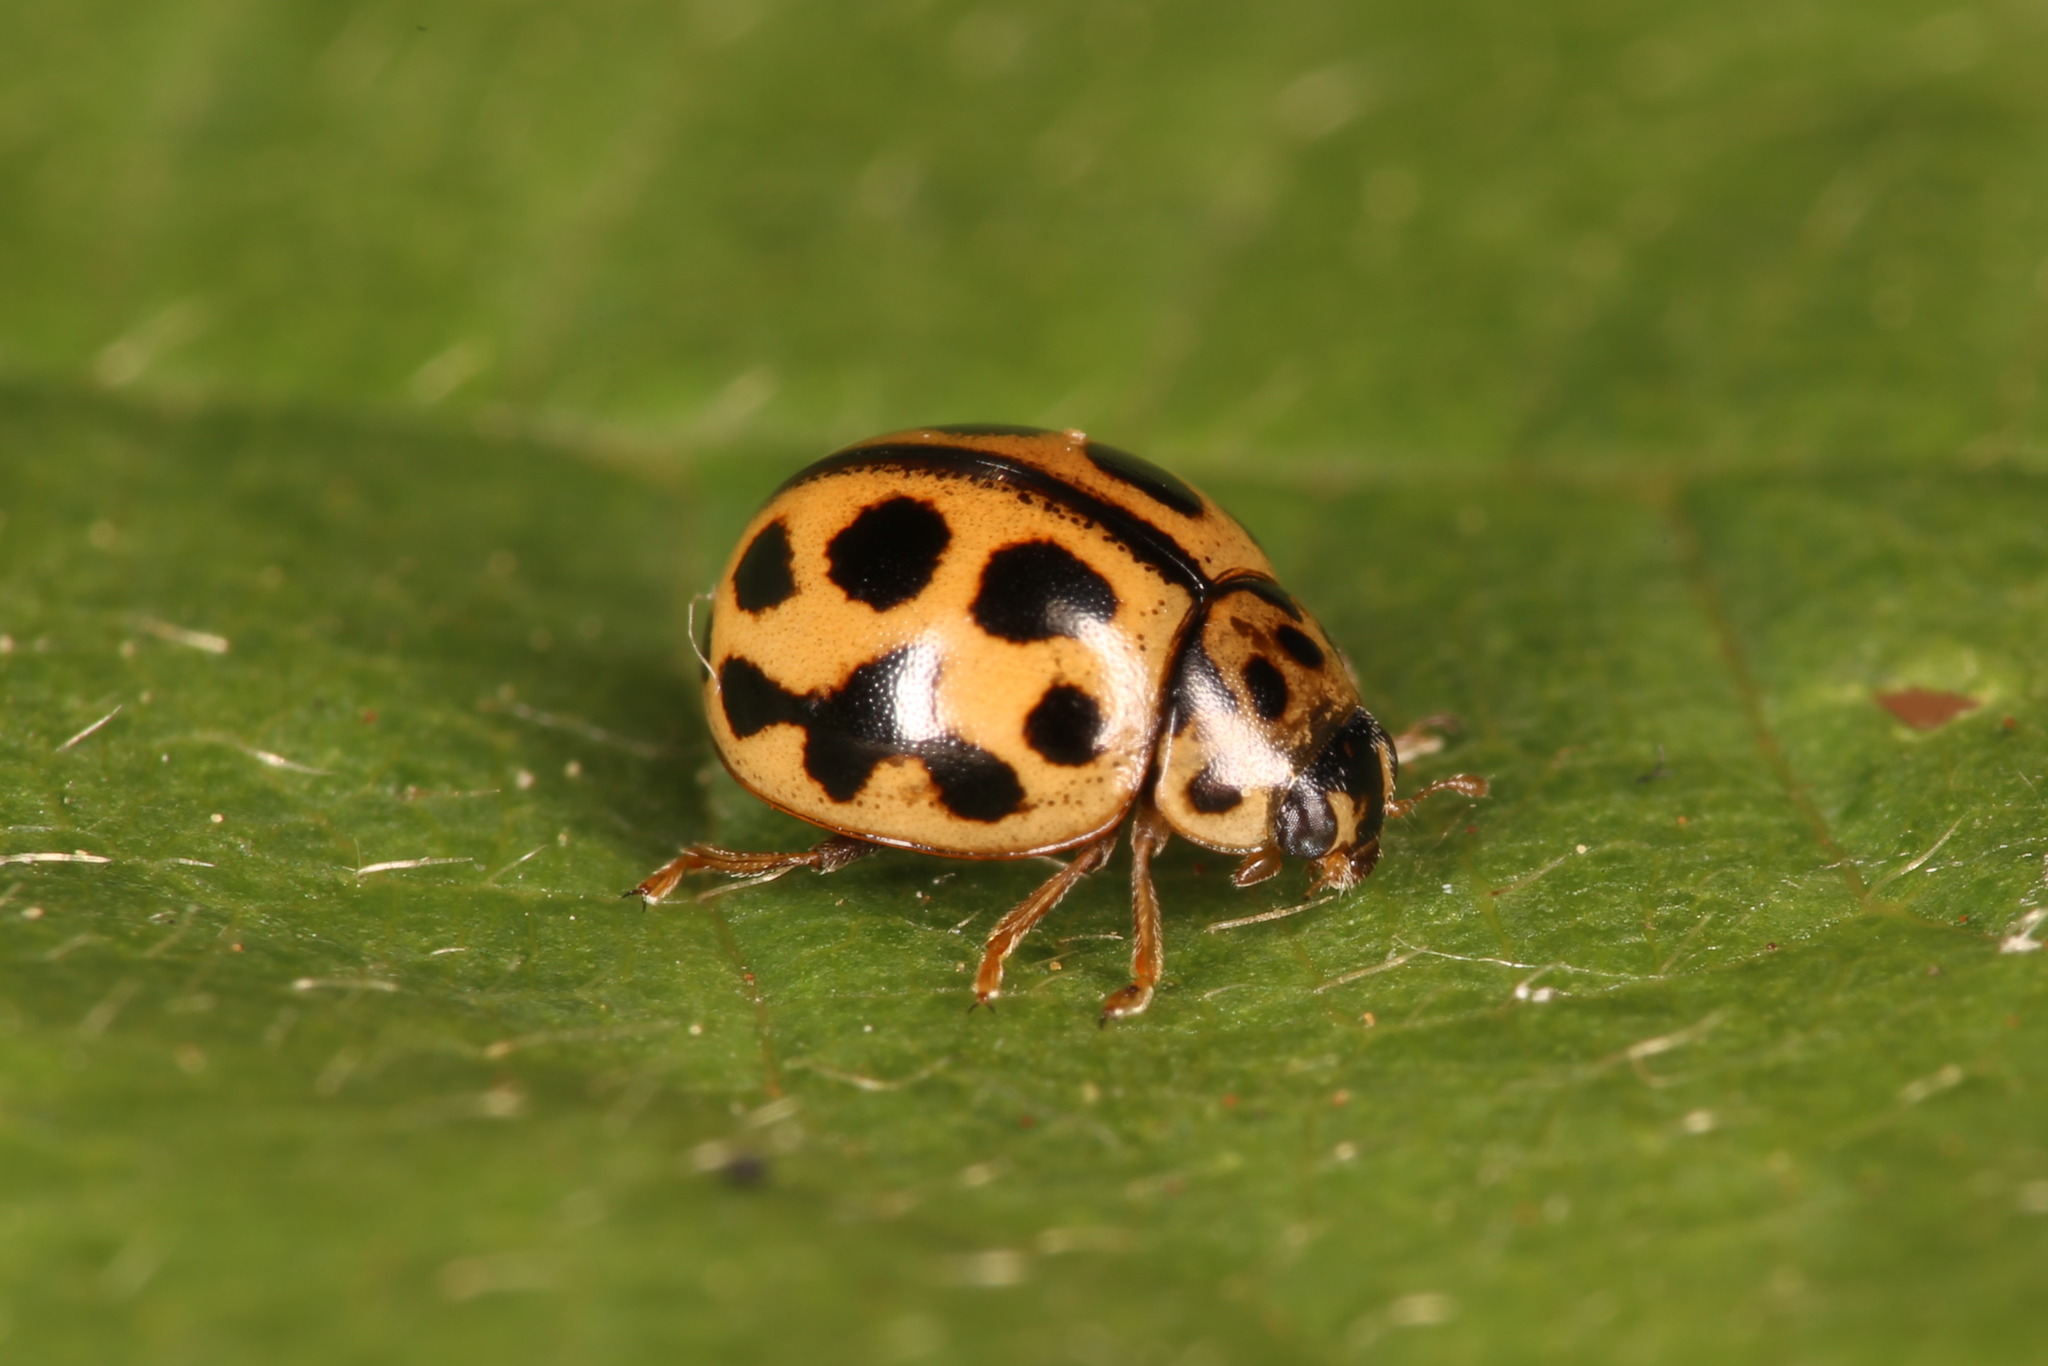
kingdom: Animalia
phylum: Arthropoda
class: Insecta
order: Coleoptera
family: Coccinellidae
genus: Tytthaspis
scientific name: Tytthaspis sedecimpunctata
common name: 16-spot ladybird
